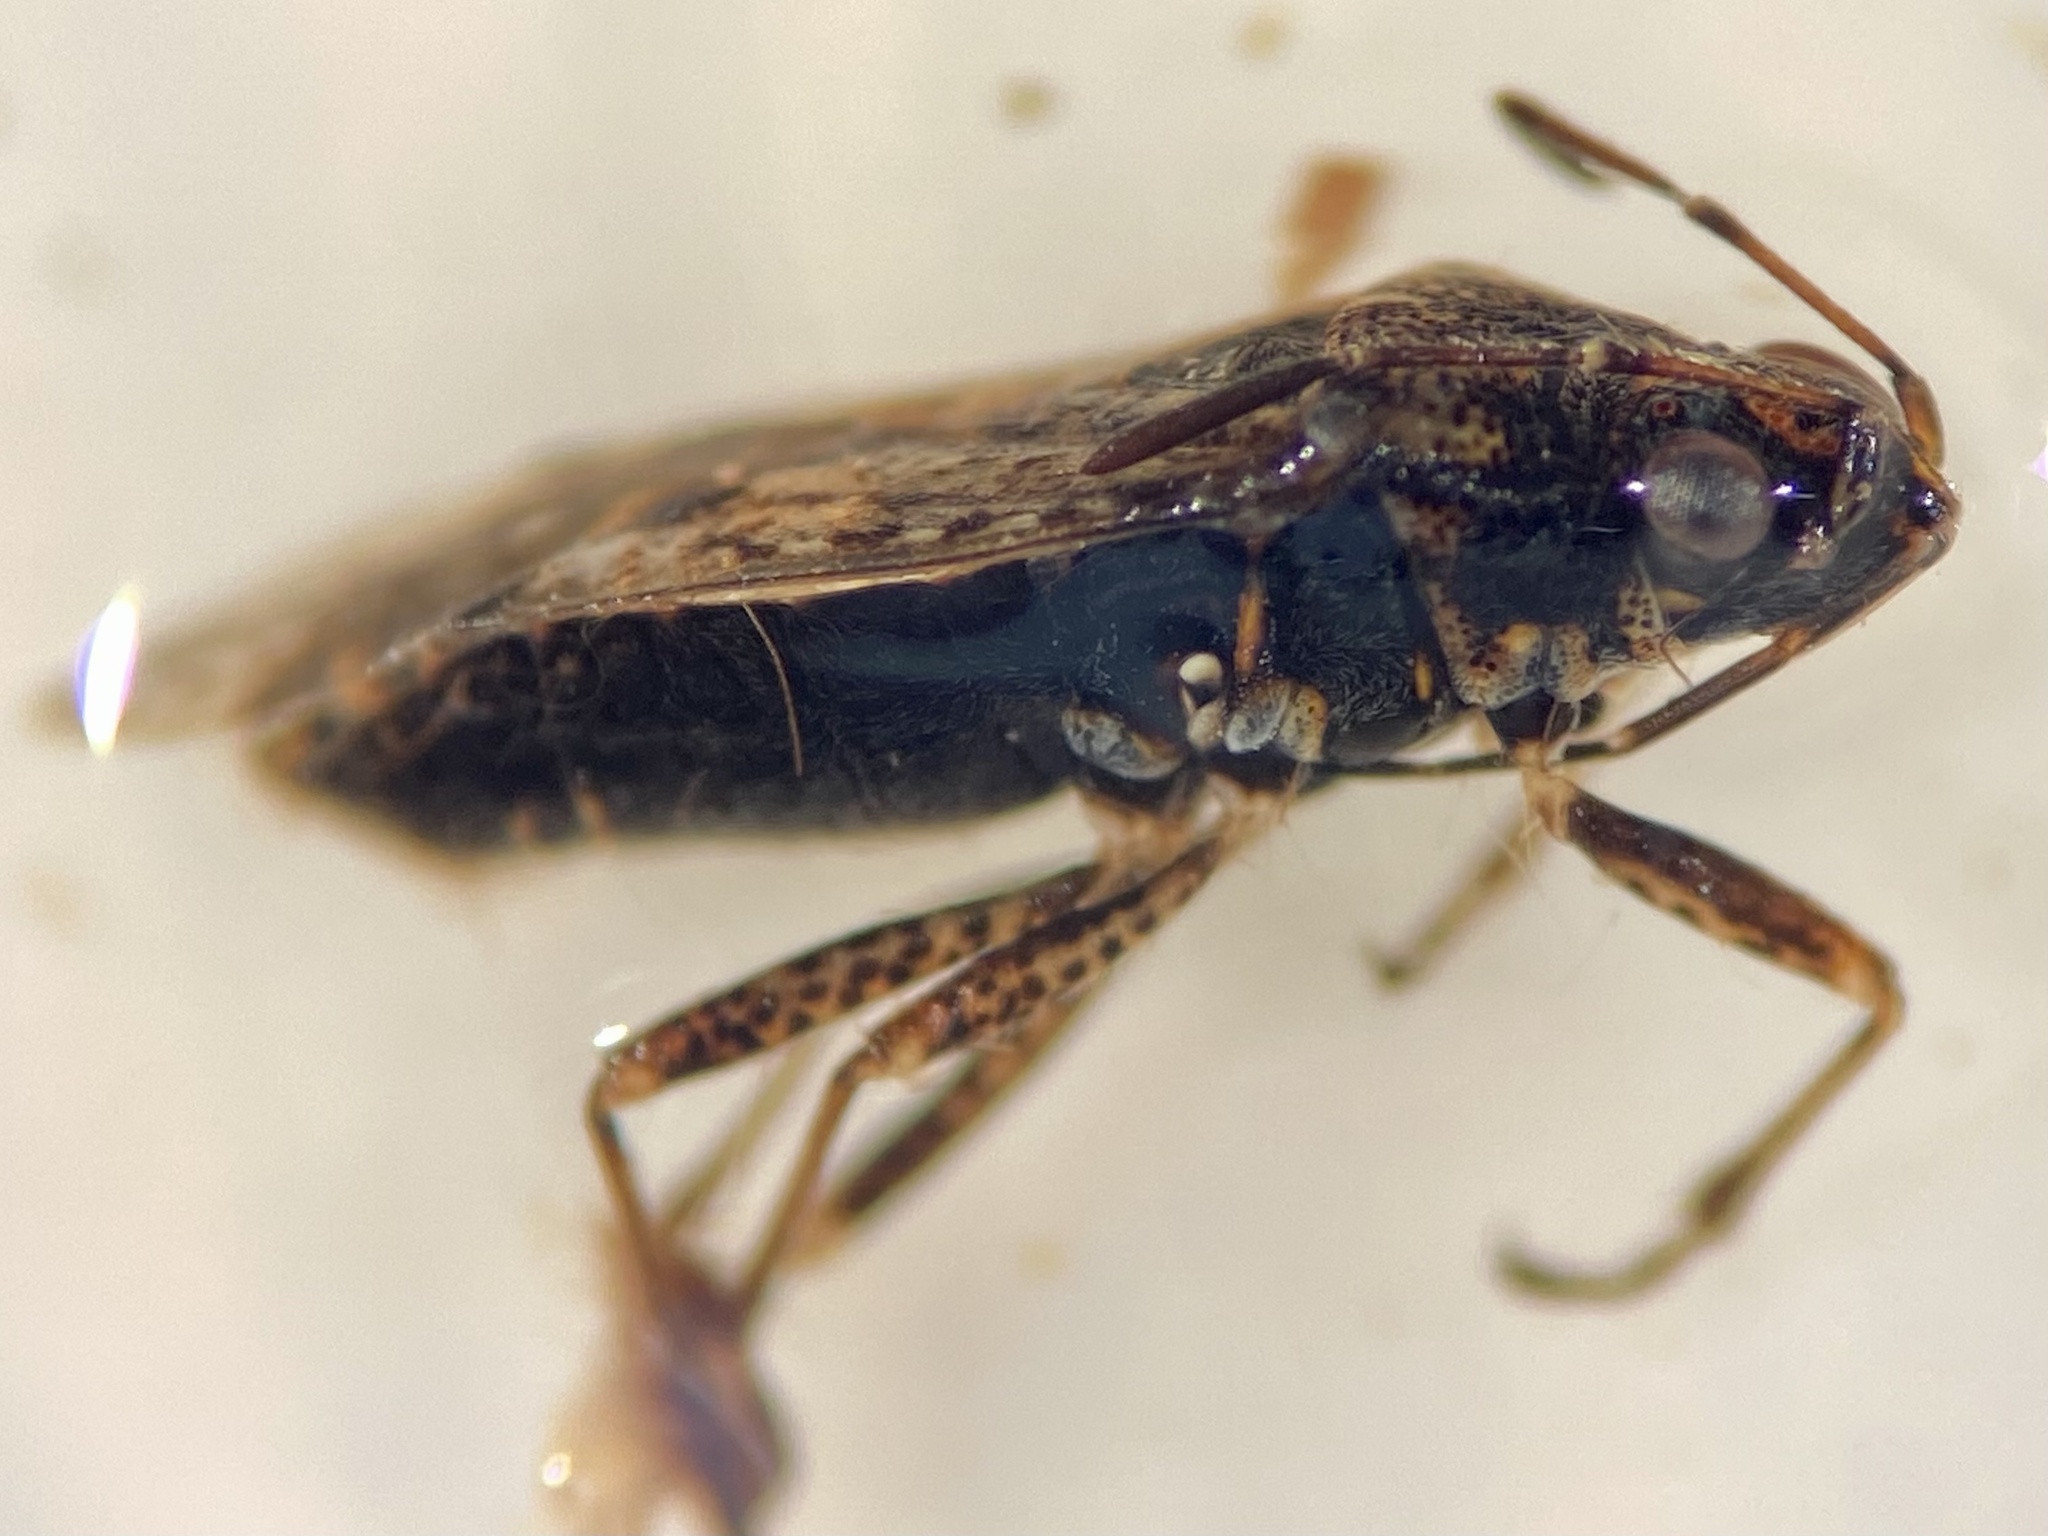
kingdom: Animalia
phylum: Arthropoda
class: Insecta
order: Hemiptera
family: Lygaeidae
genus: Nysius
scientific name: Nysius
